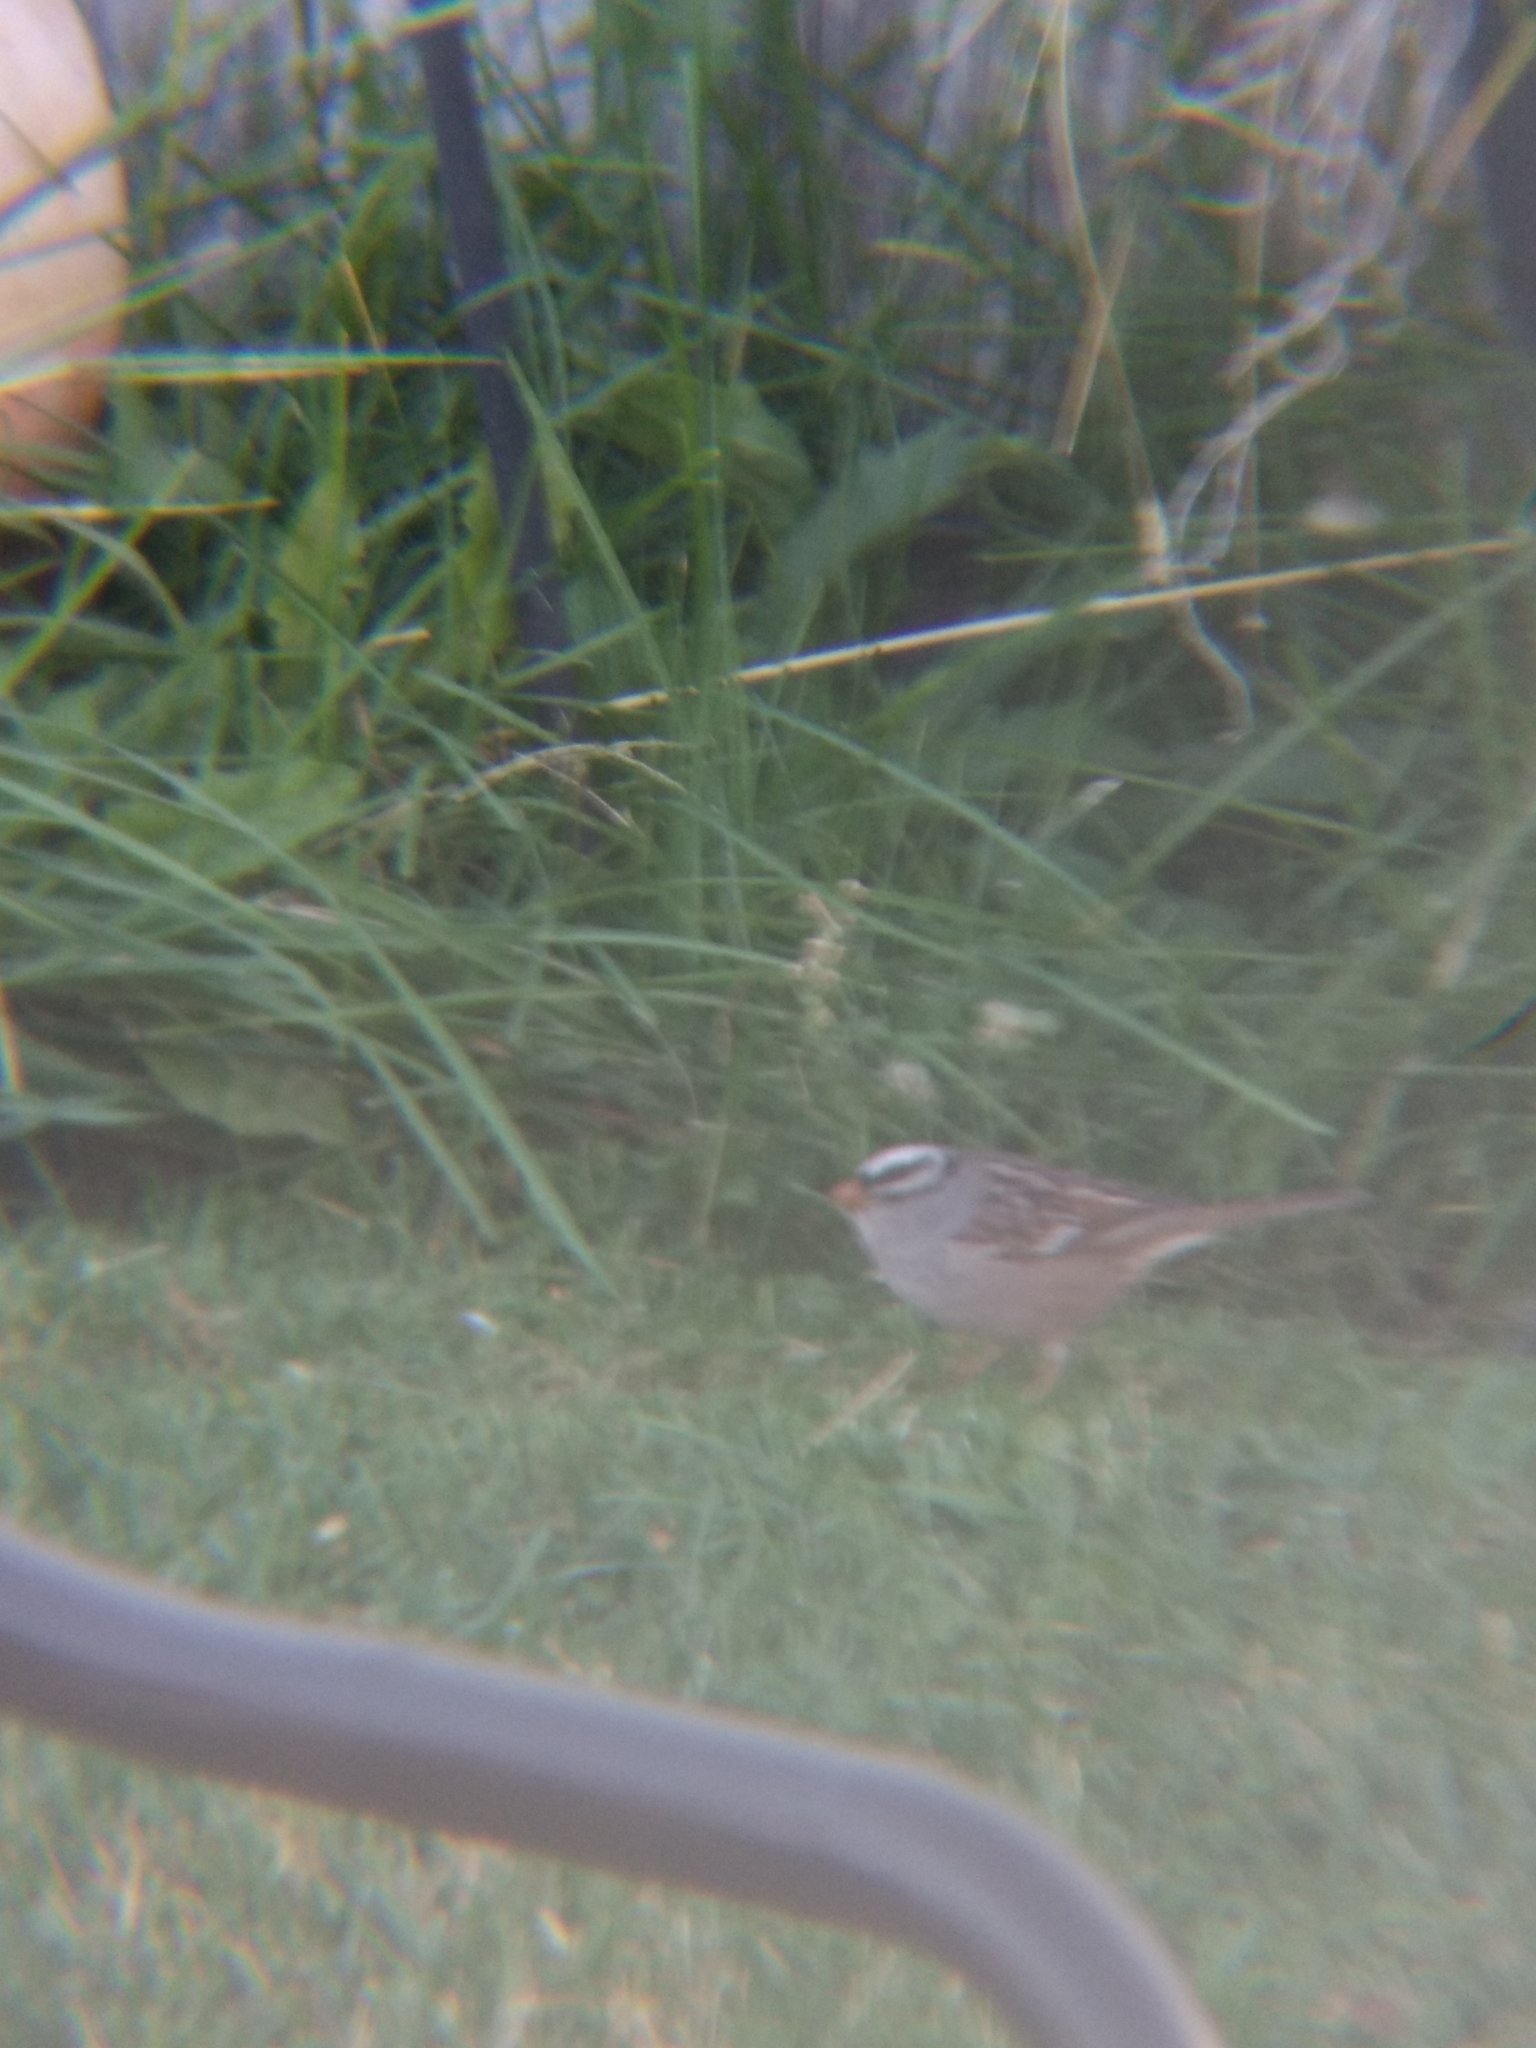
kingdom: Animalia
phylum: Chordata
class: Aves
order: Passeriformes
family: Passerellidae
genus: Zonotrichia
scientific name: Zonotrichia leucophrys
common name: White-crowned sparrow
